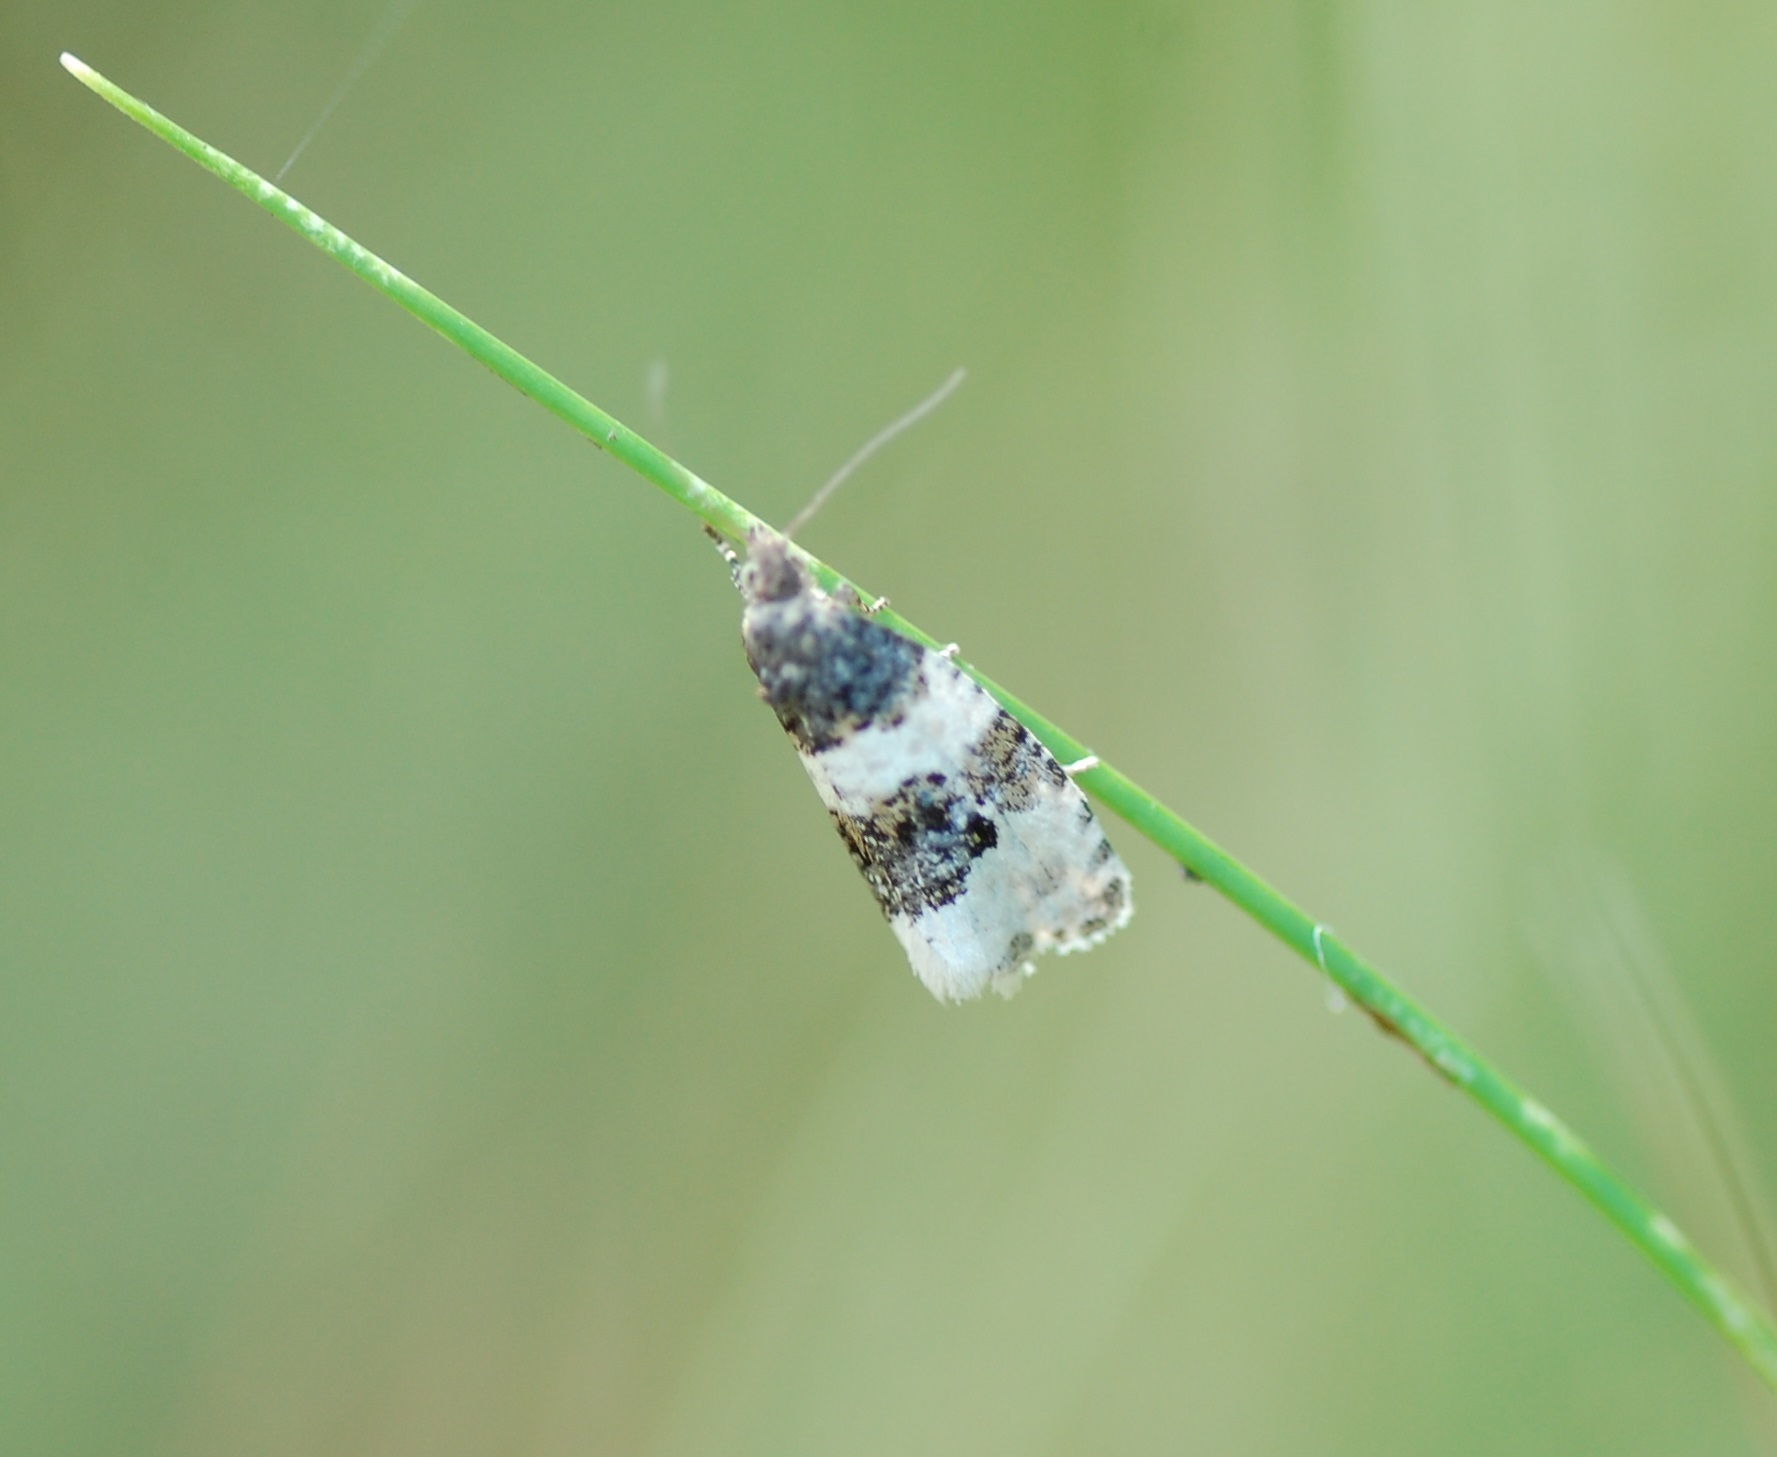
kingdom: Animalia
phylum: Arthropoda
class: Insecta
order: Lepidoptera
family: Tortricidae
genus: Olethreutes
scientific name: Olethreutes bipartitana
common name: Divided olethreutes moth
